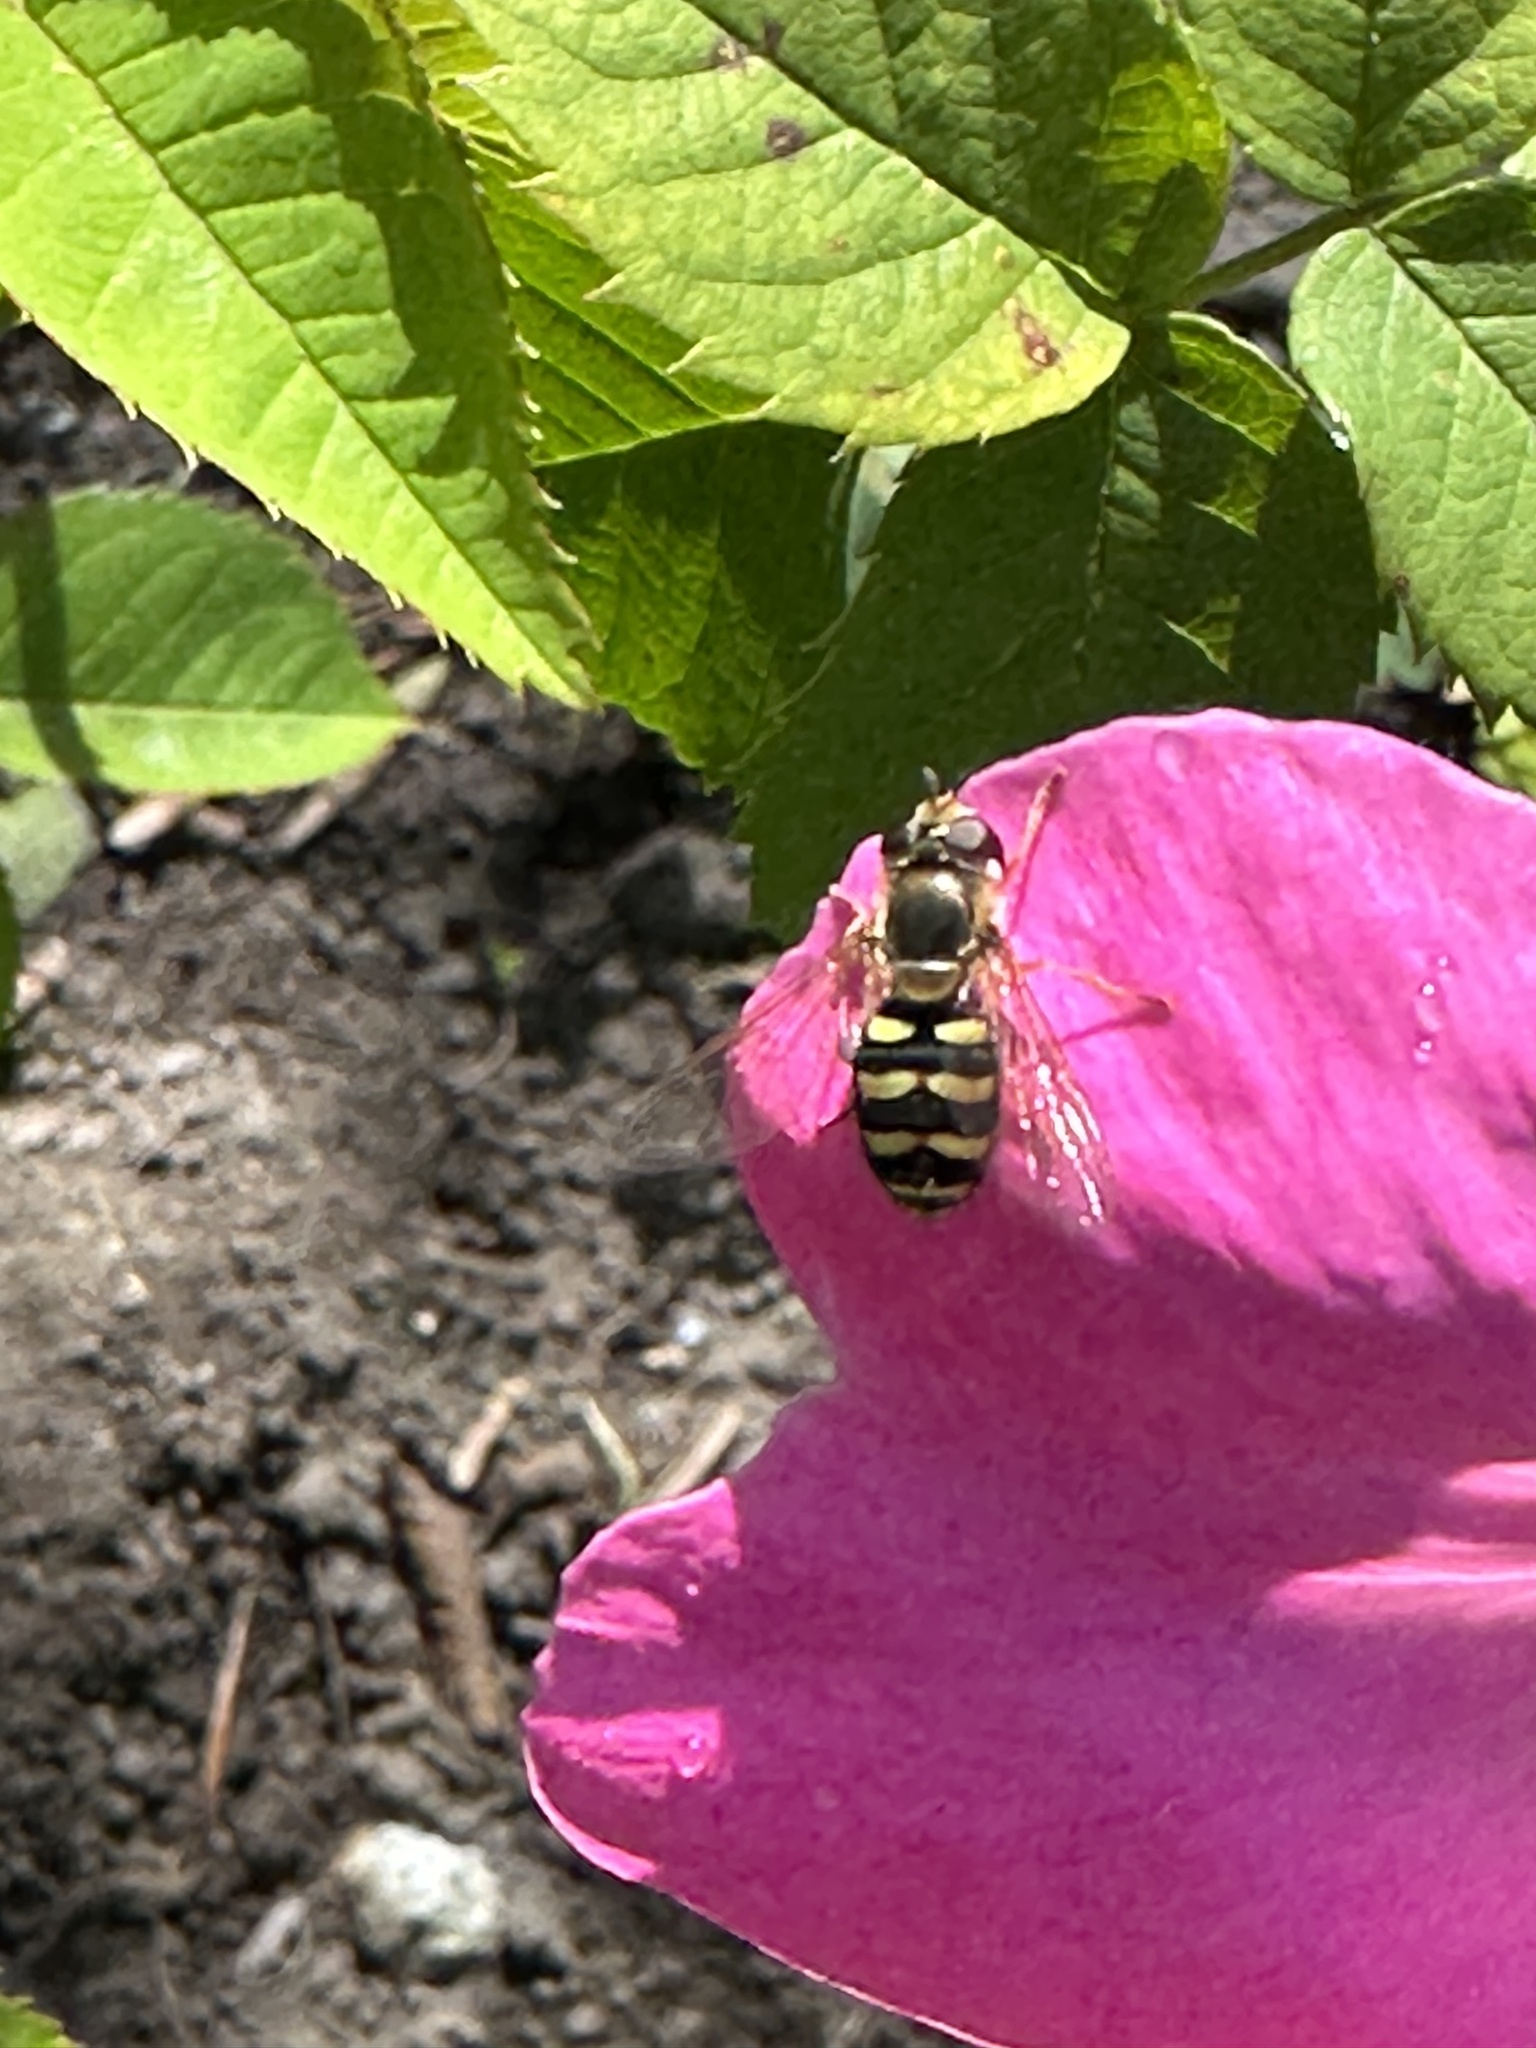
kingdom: Animalia
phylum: Arthropoda
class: Insecta
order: Diptera
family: Syrphidae
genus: Eupeodes
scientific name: Eupeodes fumipennis
